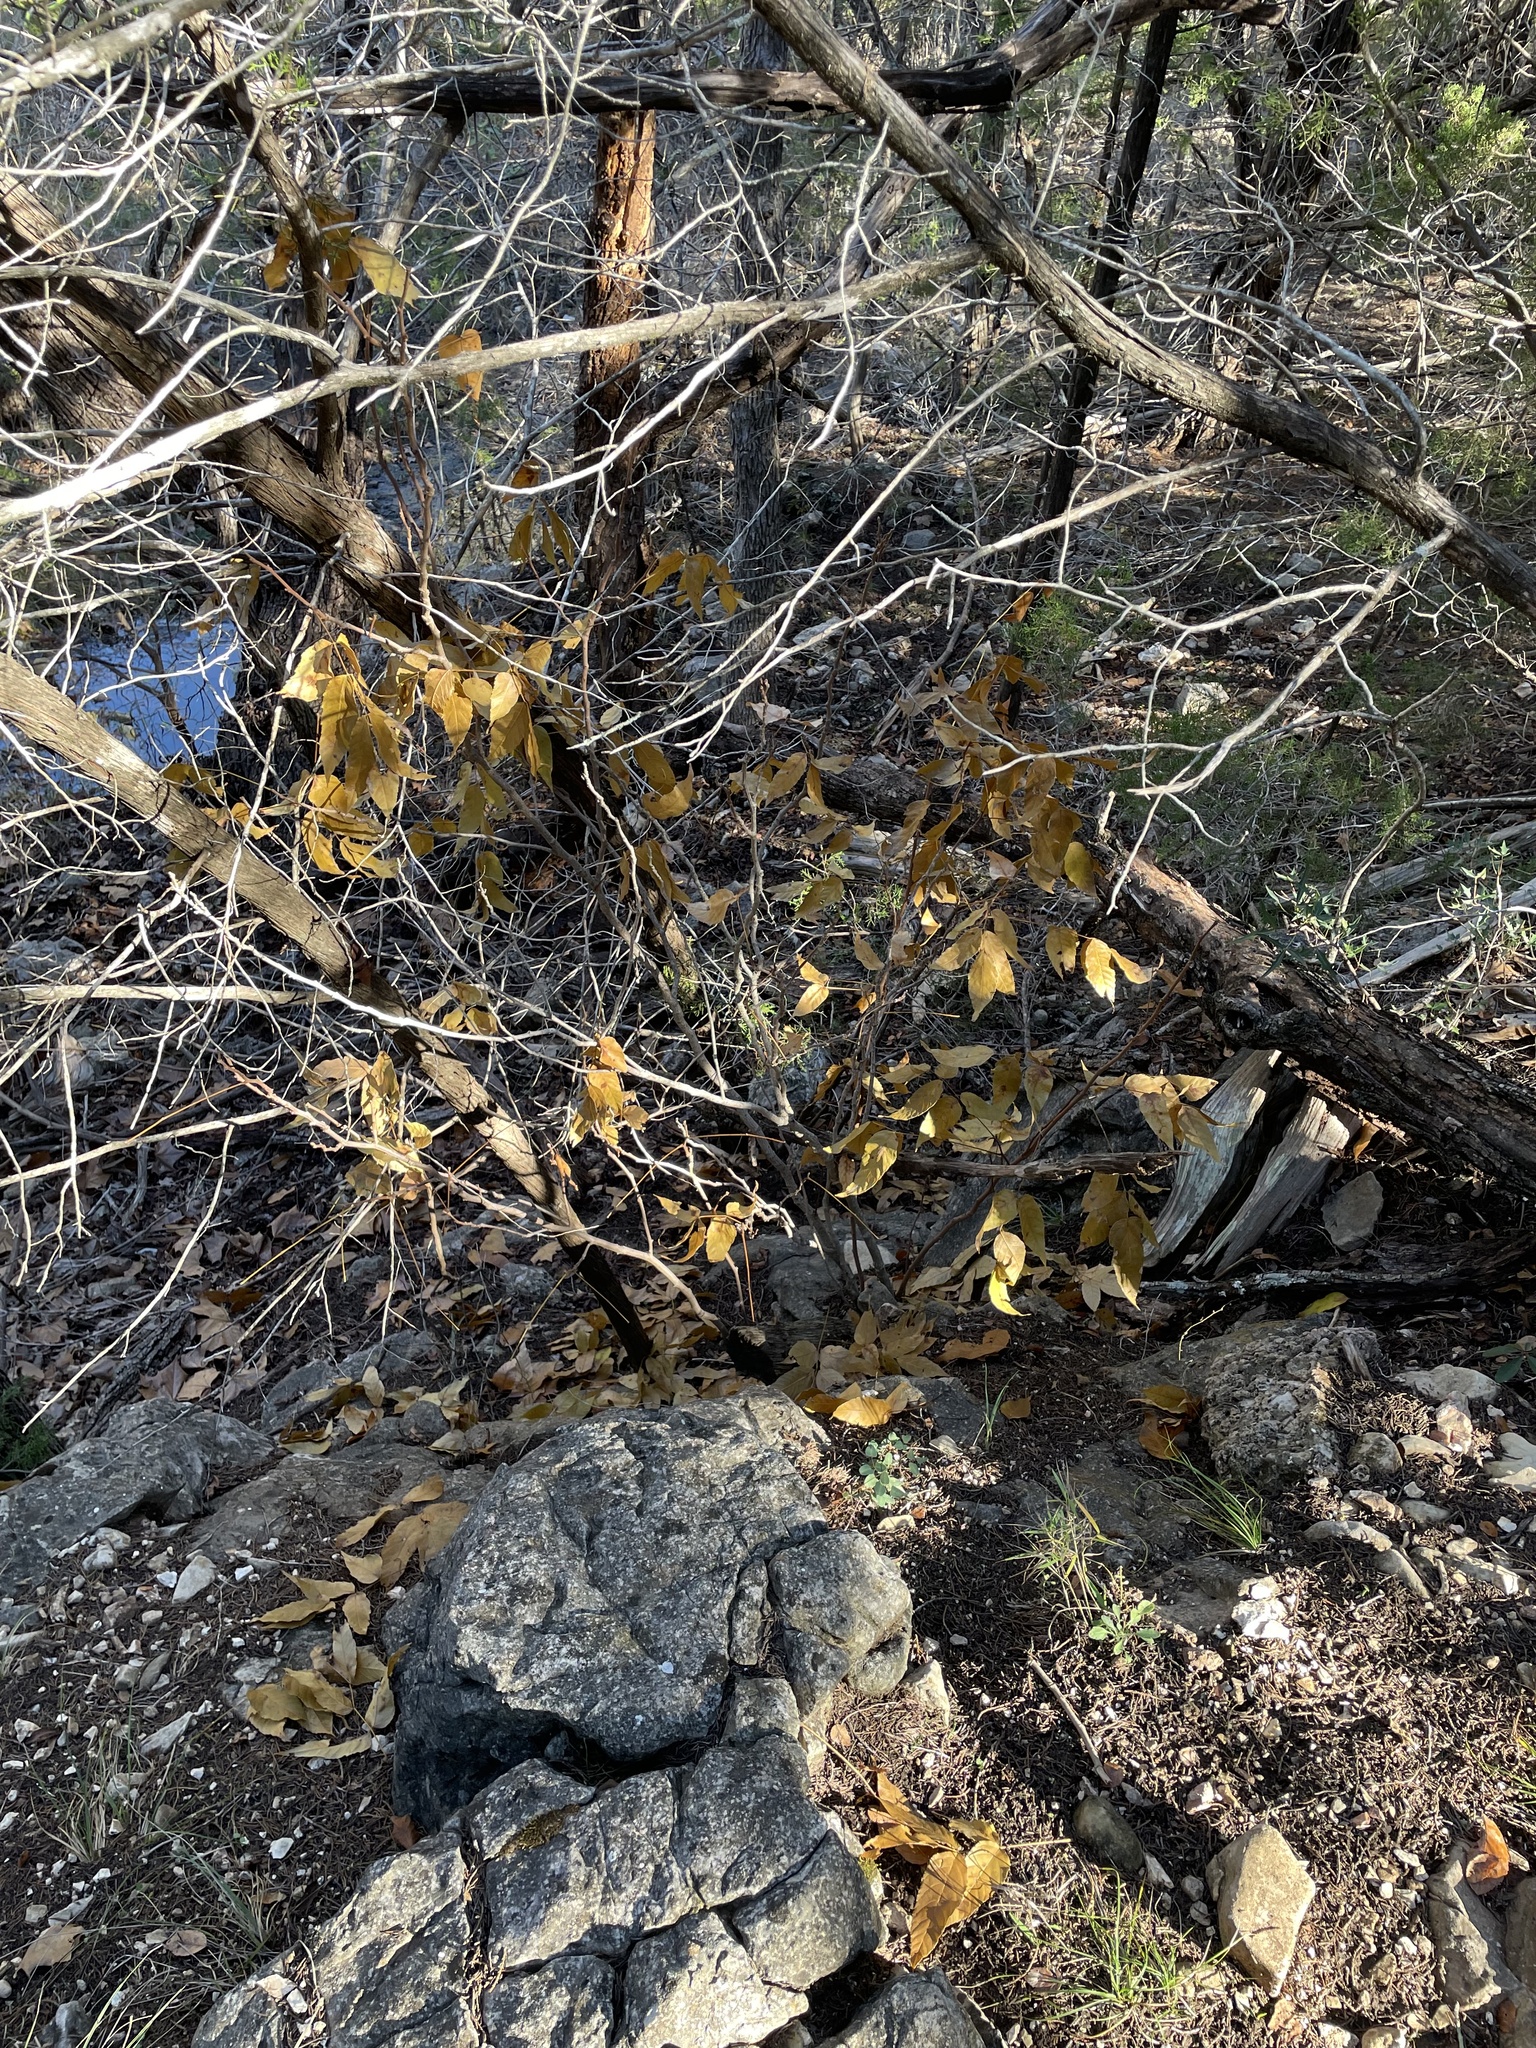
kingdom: Plantae
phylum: Tracheophyta
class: Magnoliopsida
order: Sapindales
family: Sapindaceae
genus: Ungnadia
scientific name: Ungnadia speciosa
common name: Texas-buckeye
